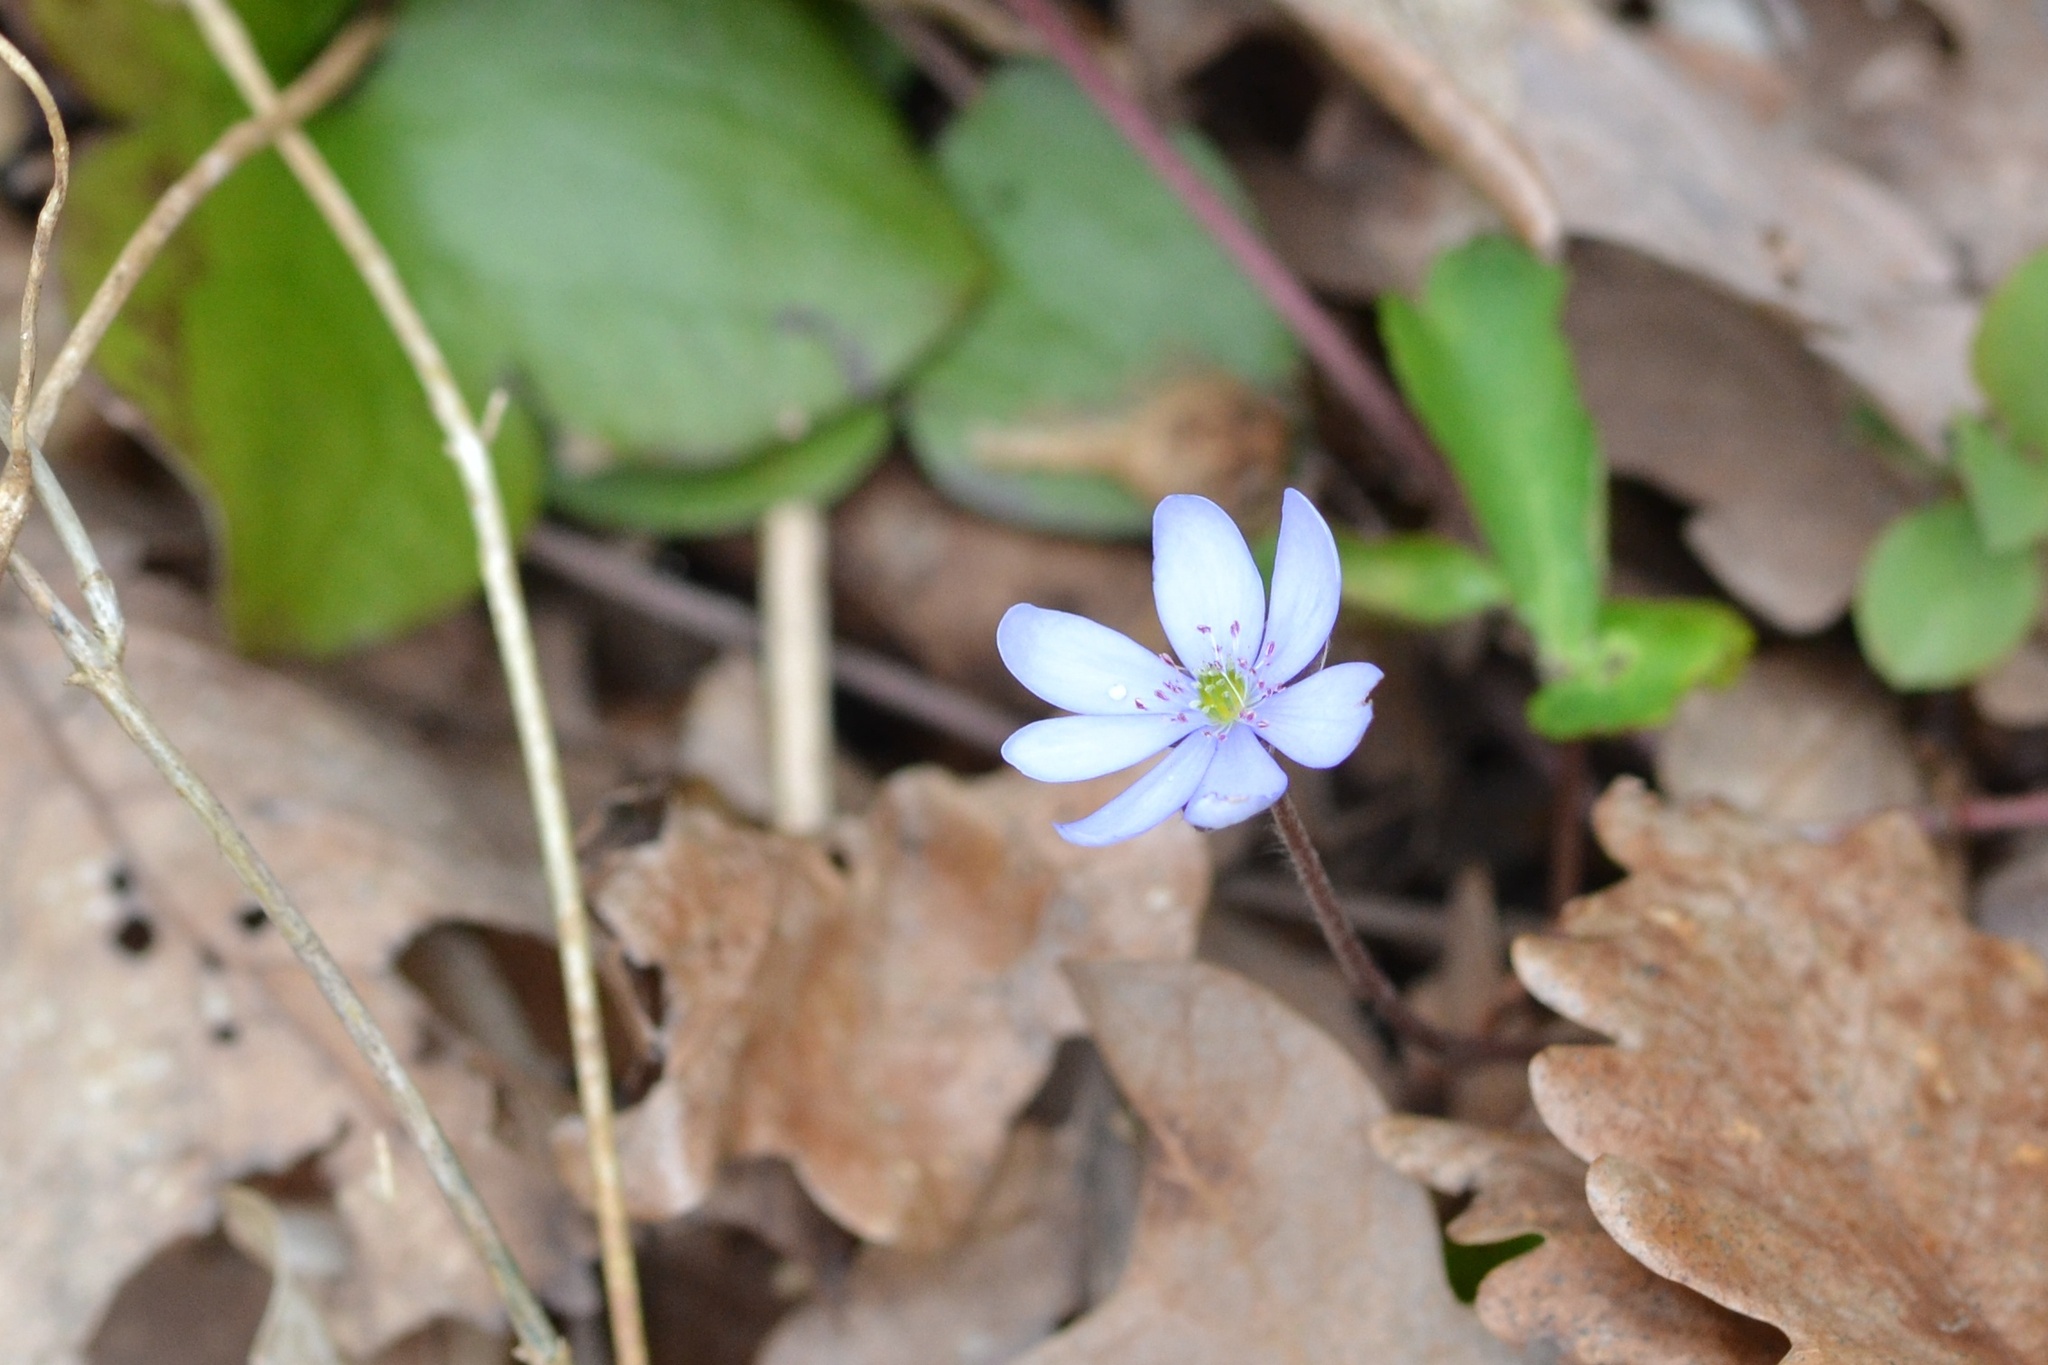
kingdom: Plantae
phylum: Tracheophyta
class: Magnoliopsida
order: Ranunculales
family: Ranunculaceae
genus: Hepatica
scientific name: Hepatica nobilis
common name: Liverleaf
